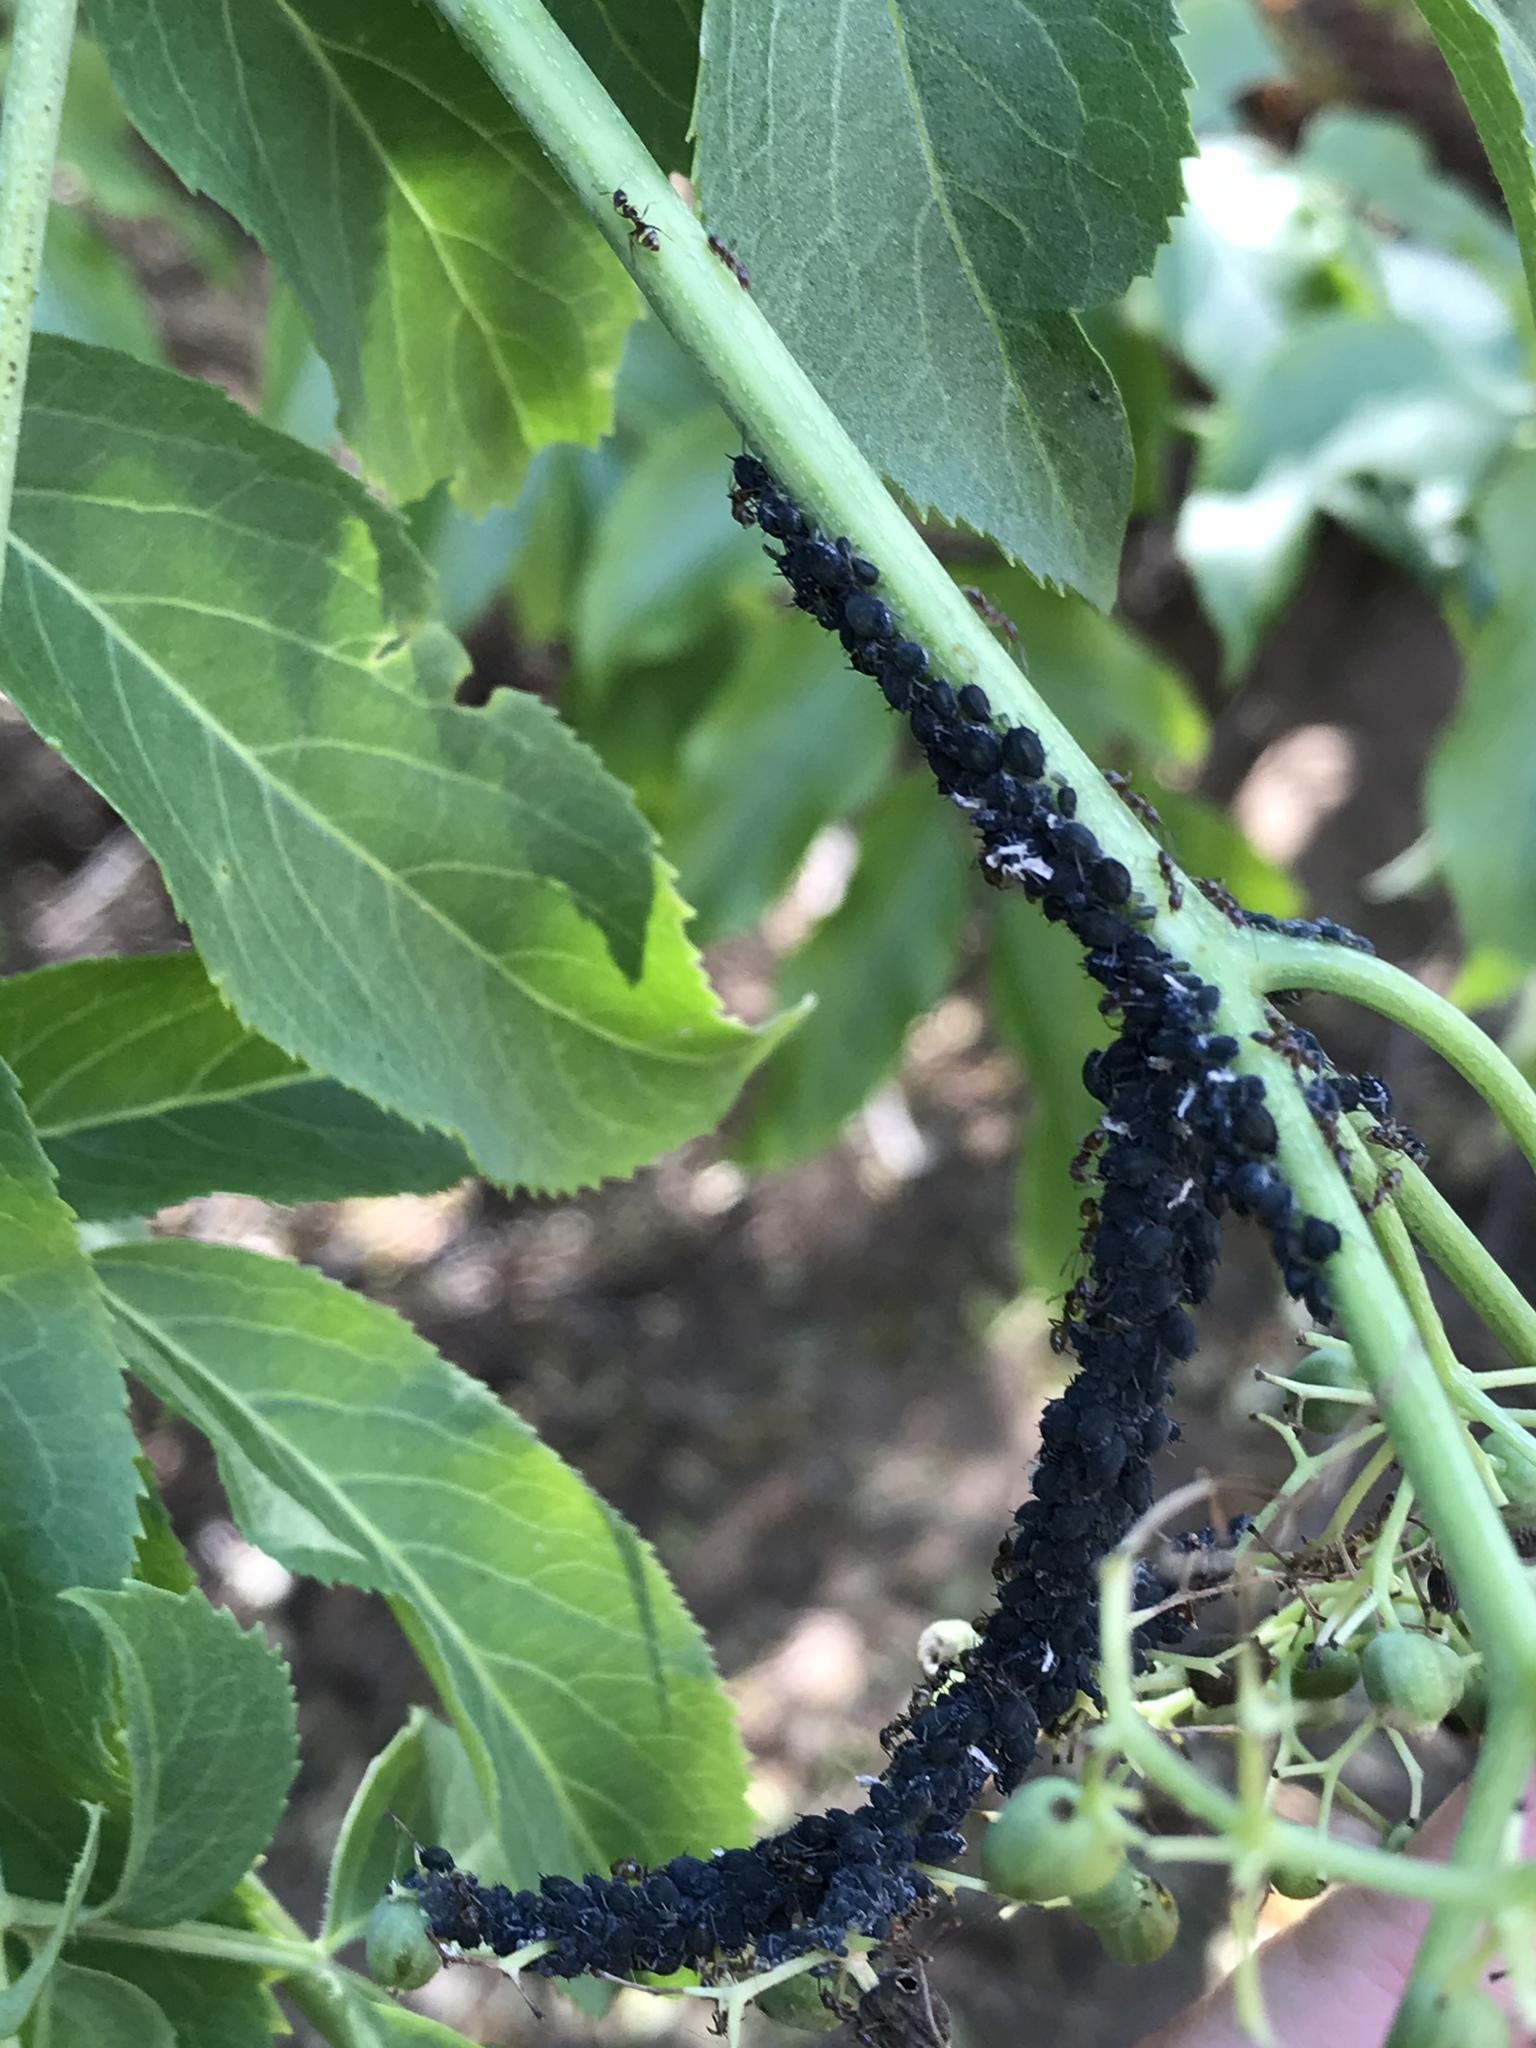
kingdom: Animalia
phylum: Arthropoda
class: Insecta
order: Hemiptera
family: Aphididae
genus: Aphis
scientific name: Aphis sambuci
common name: Elder aphid
